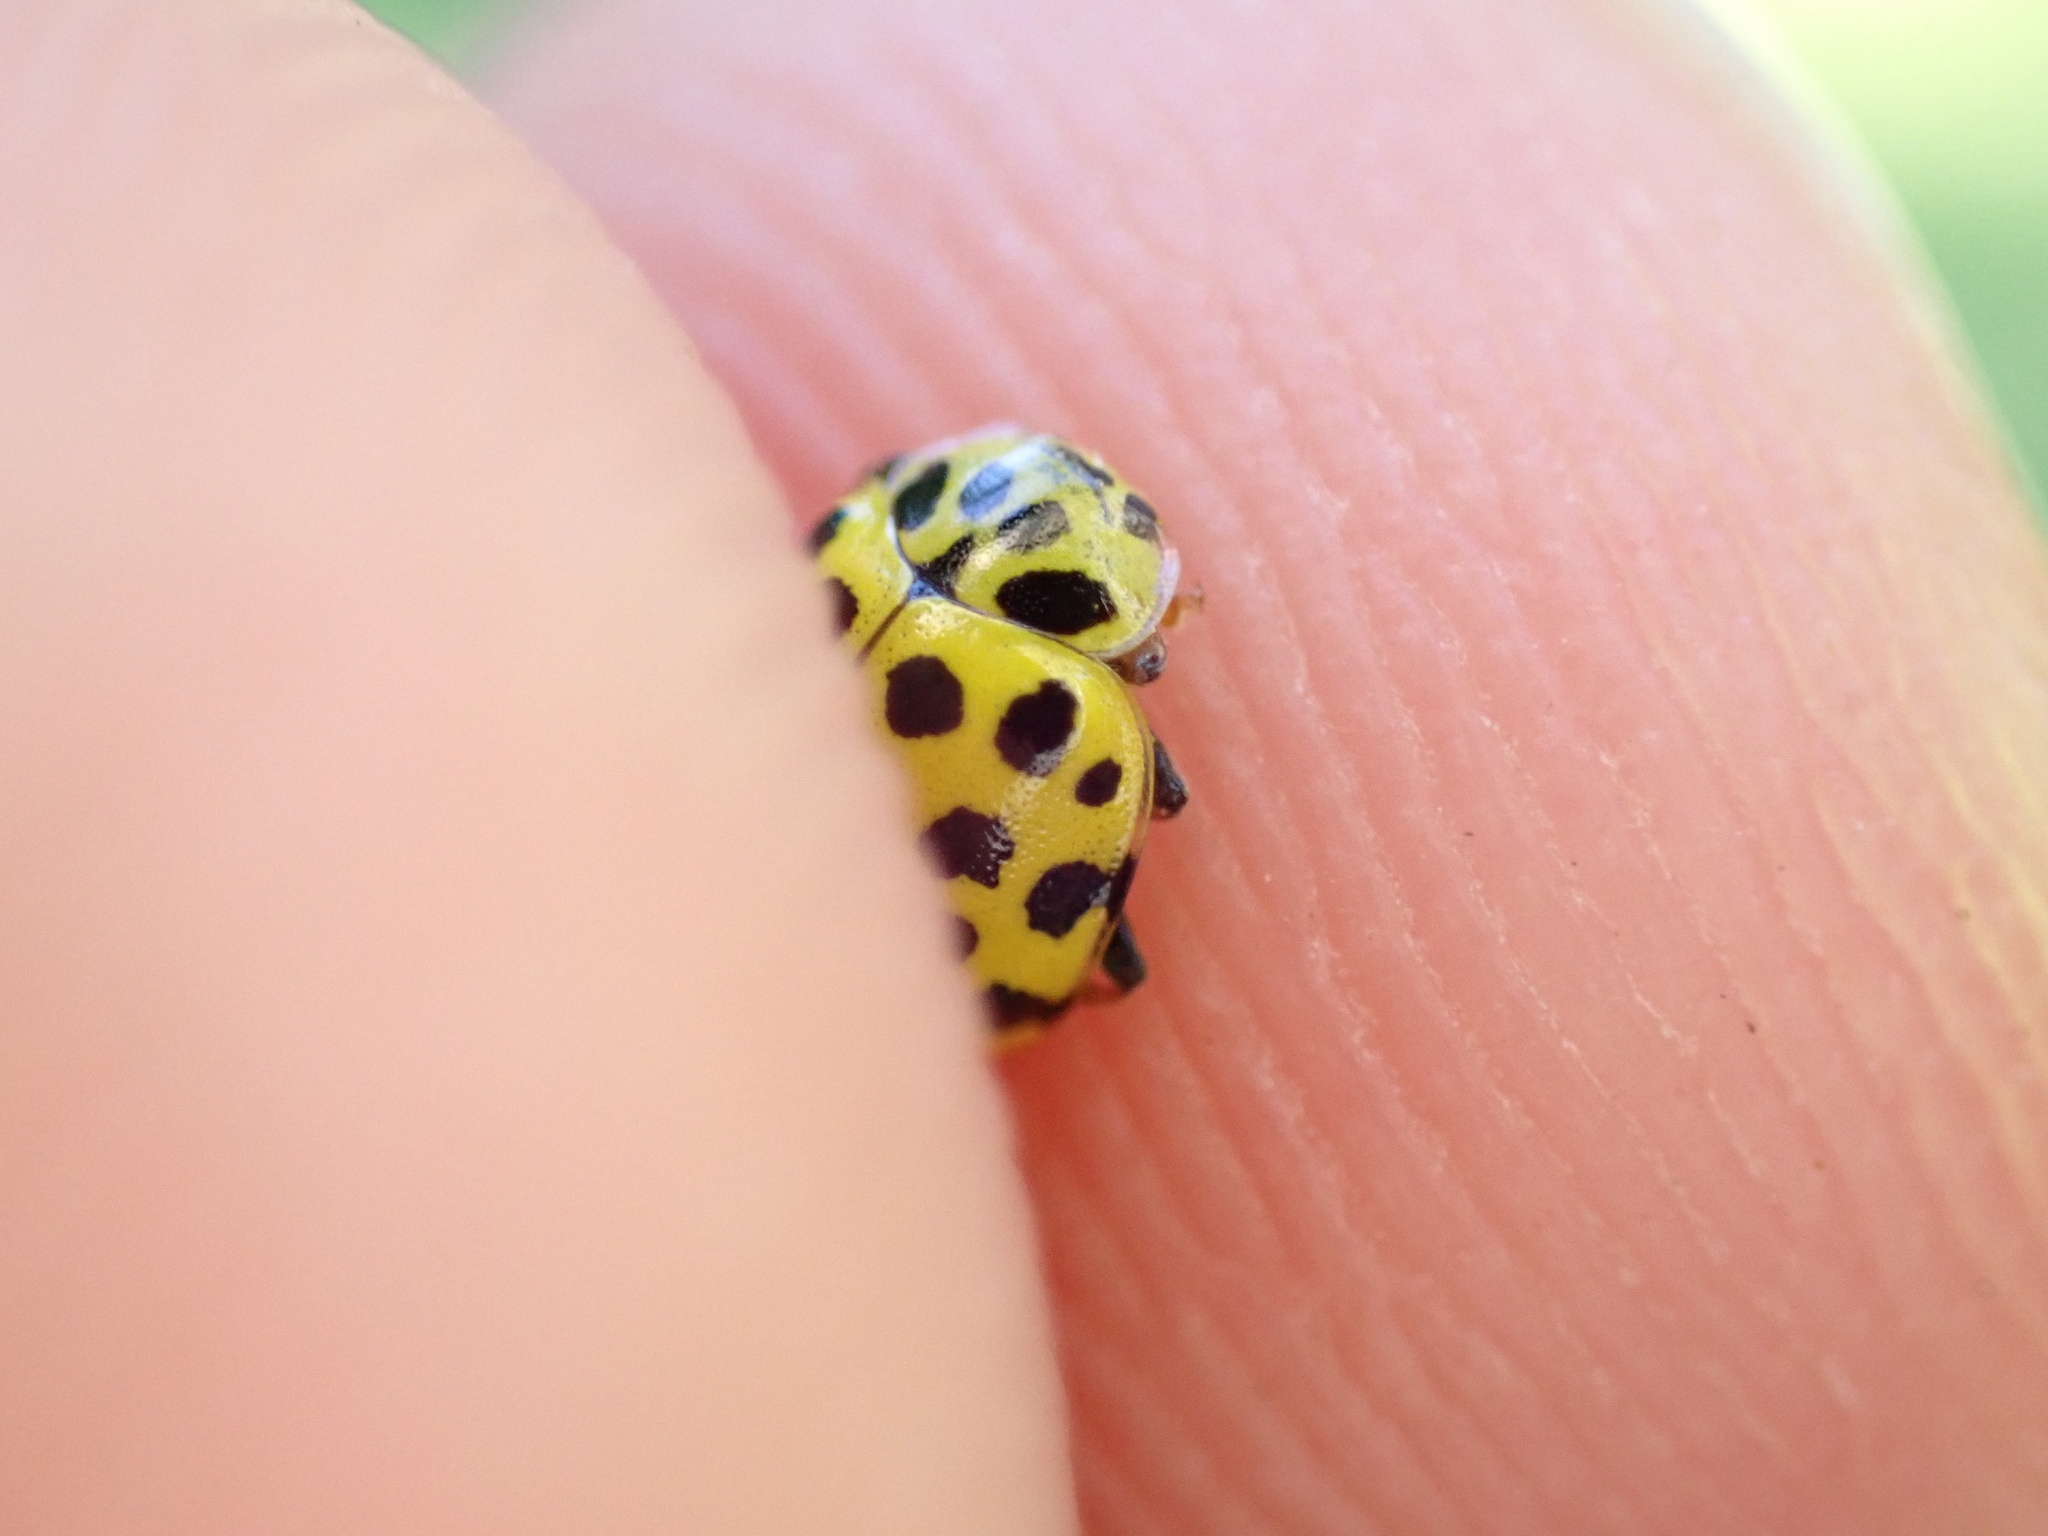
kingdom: Animalia
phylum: Arthropoda
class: Insecta
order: Coleoptera
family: Coccinellidae
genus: Psyllobora
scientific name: Psyllobora vigintiduopunctata
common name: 22-spot ladybird
